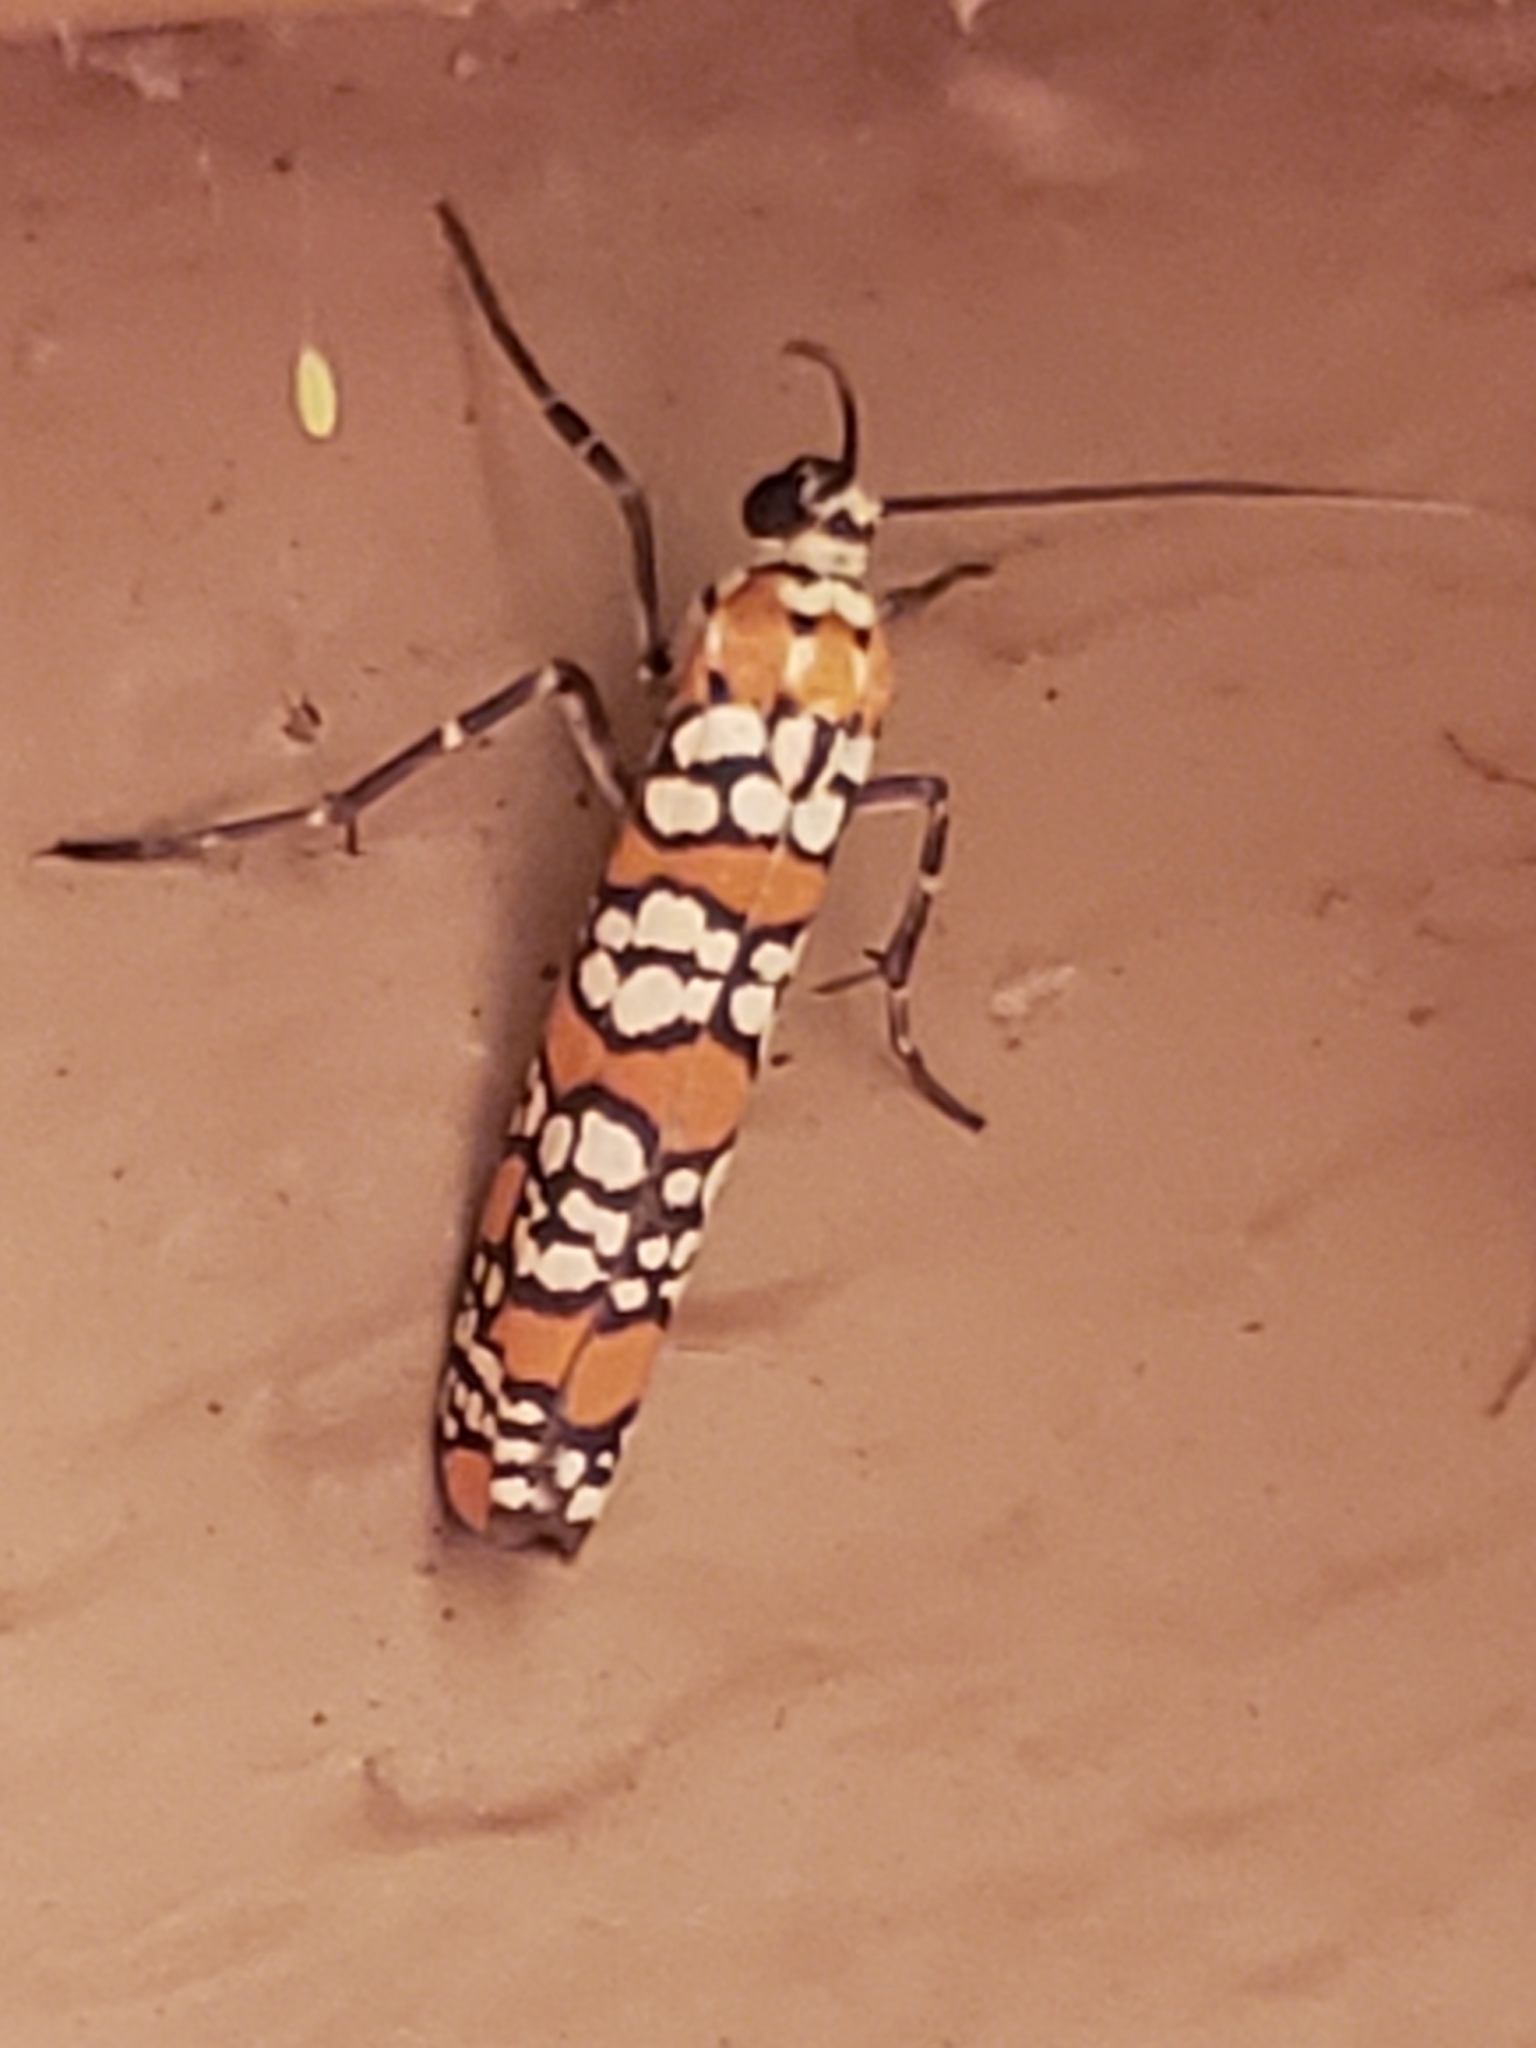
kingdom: Animalia
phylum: Arthropoda
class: Insecta
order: Lepidoptera
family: Attevidae
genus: Atteva
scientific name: Atteva punctella
